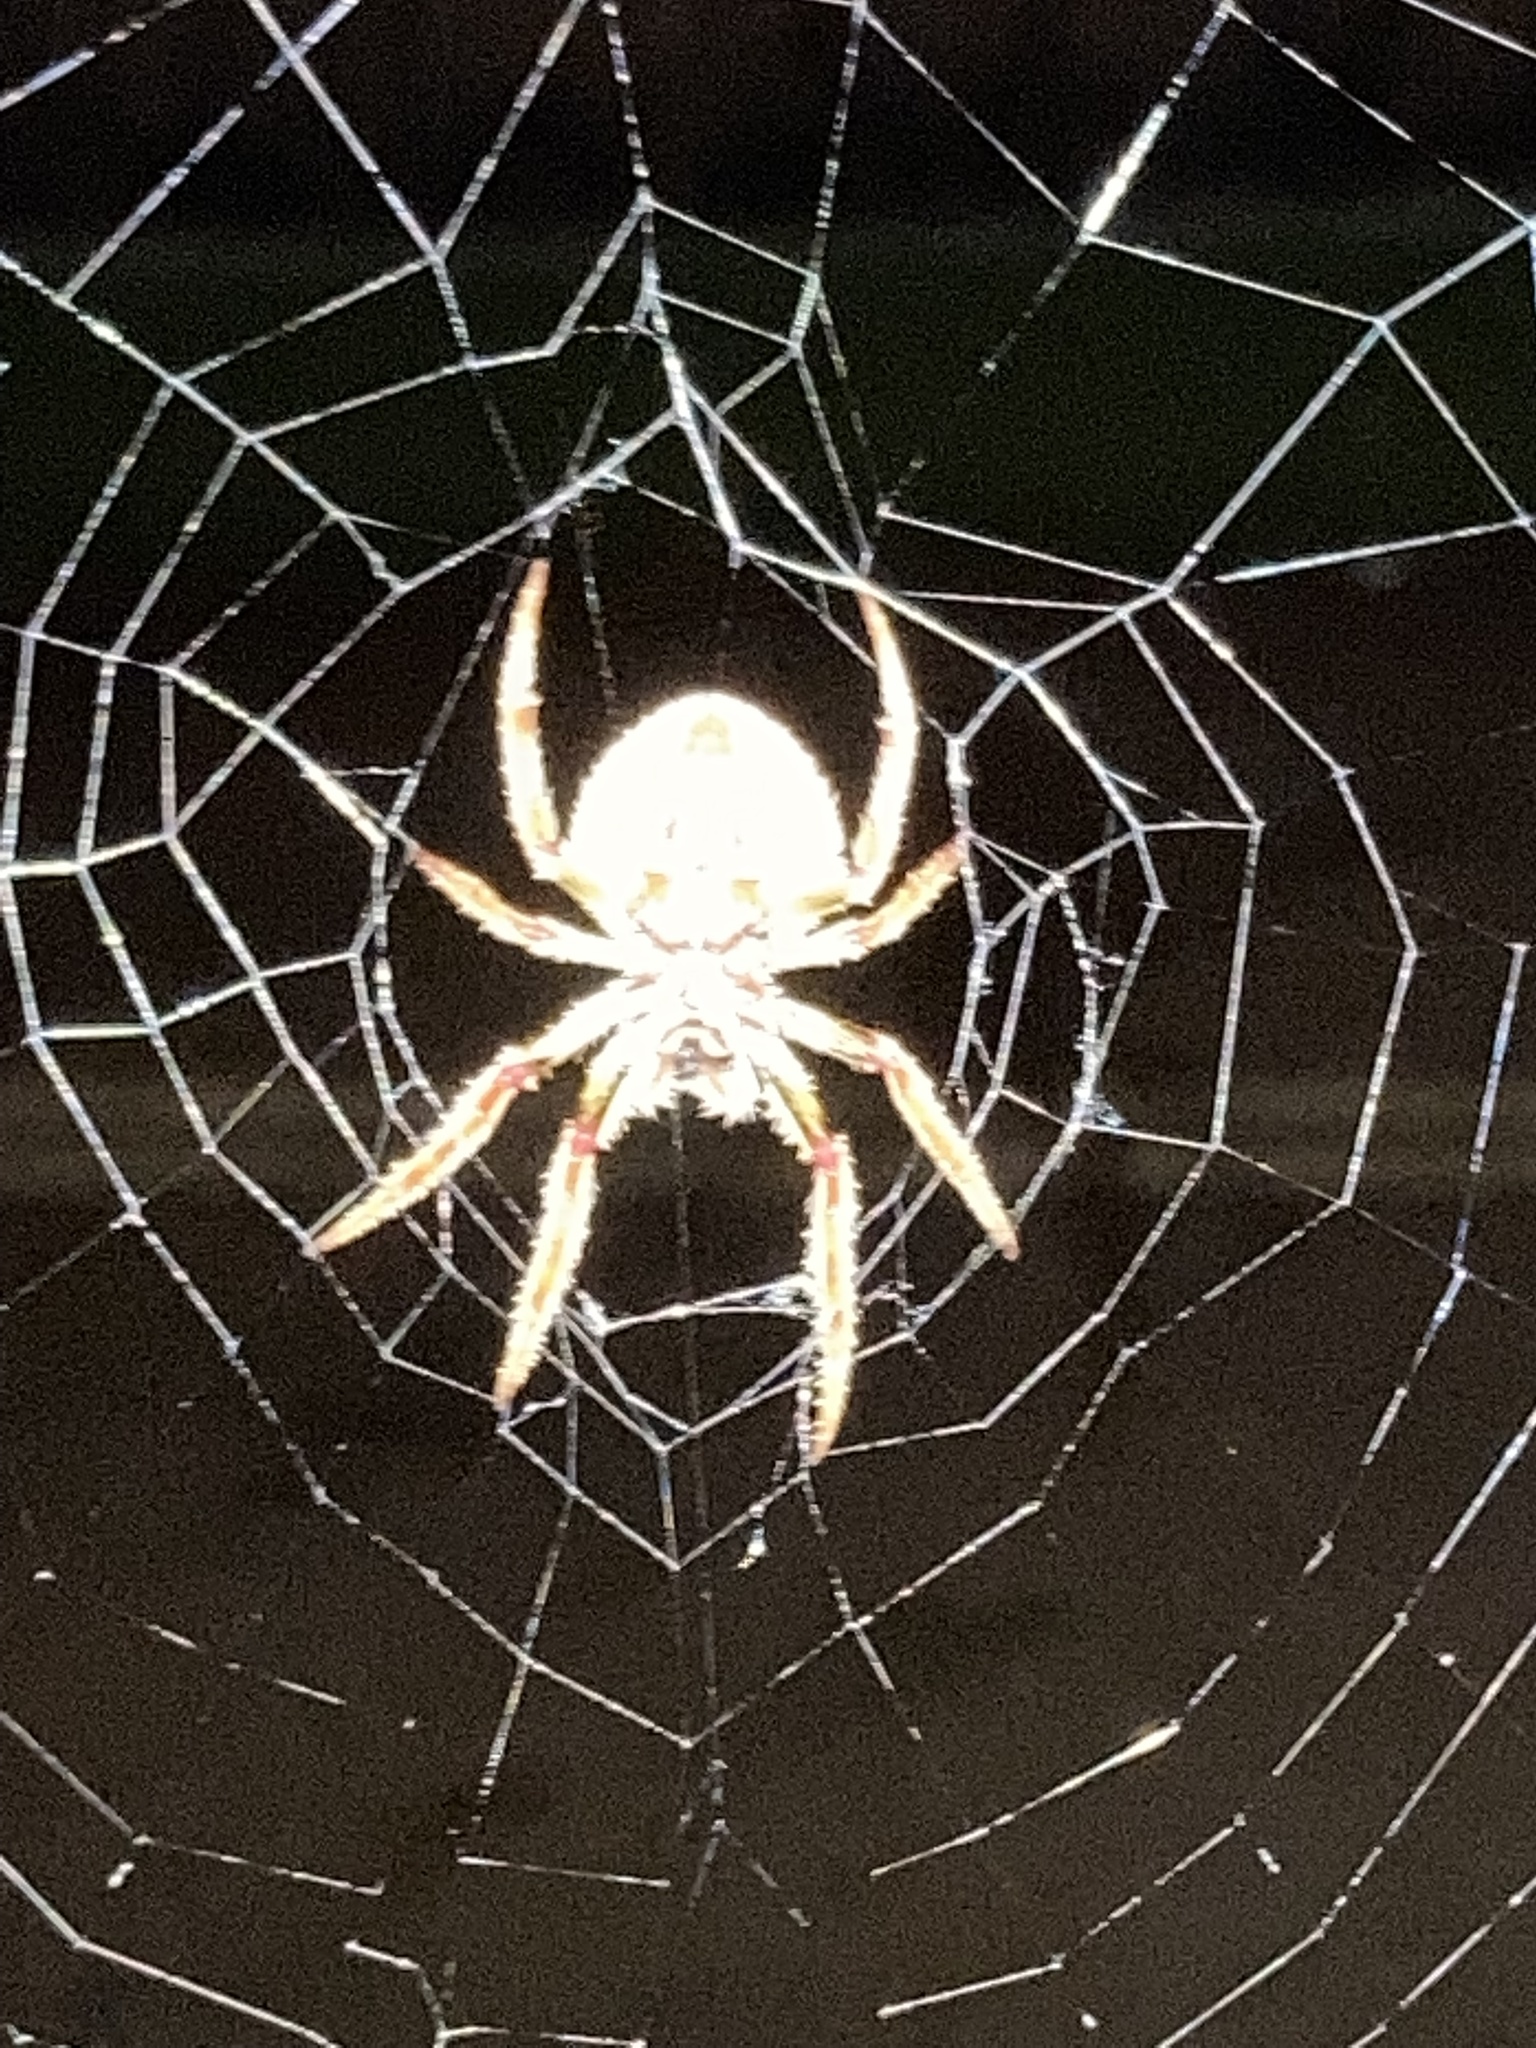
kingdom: Animalia
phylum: Arthropoda
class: Arachnida
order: Araneae
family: Araneidae
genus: Eriophora
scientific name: Eriophora ravilla
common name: Orb weavers
